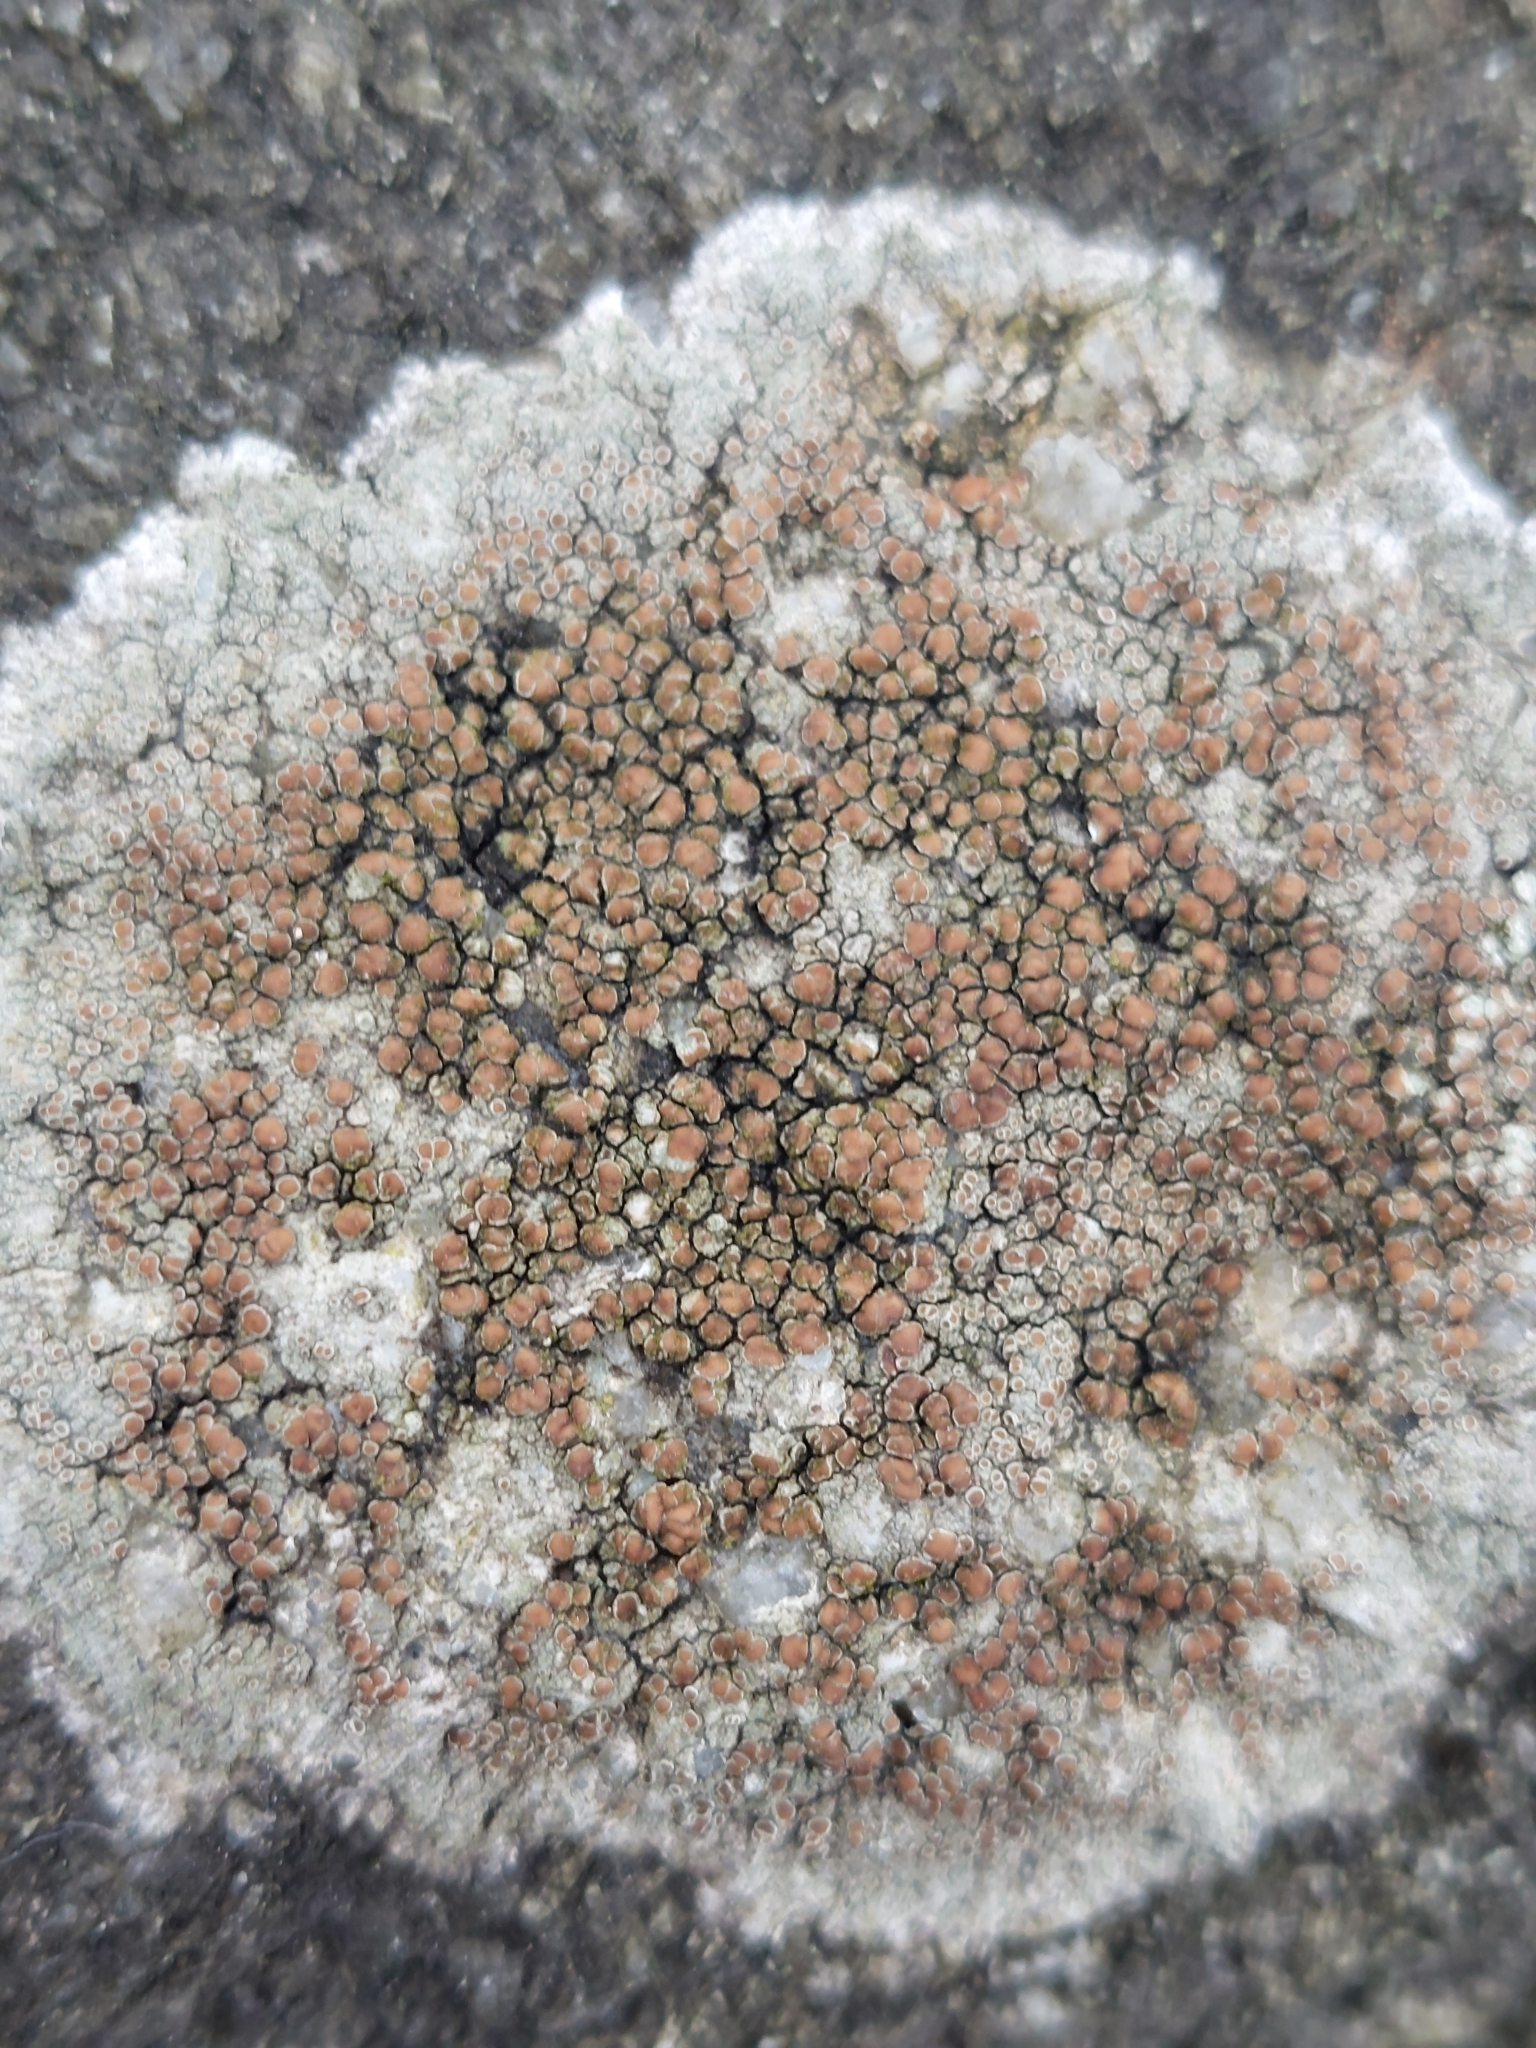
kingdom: Fungi
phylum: Ascomycota
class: Lecanoromycetes
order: Lecanorales
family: Lecanoraceae
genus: Protoparmeliopsis
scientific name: Protoparmeliopsis muralis
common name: Stonewall rim lichen
